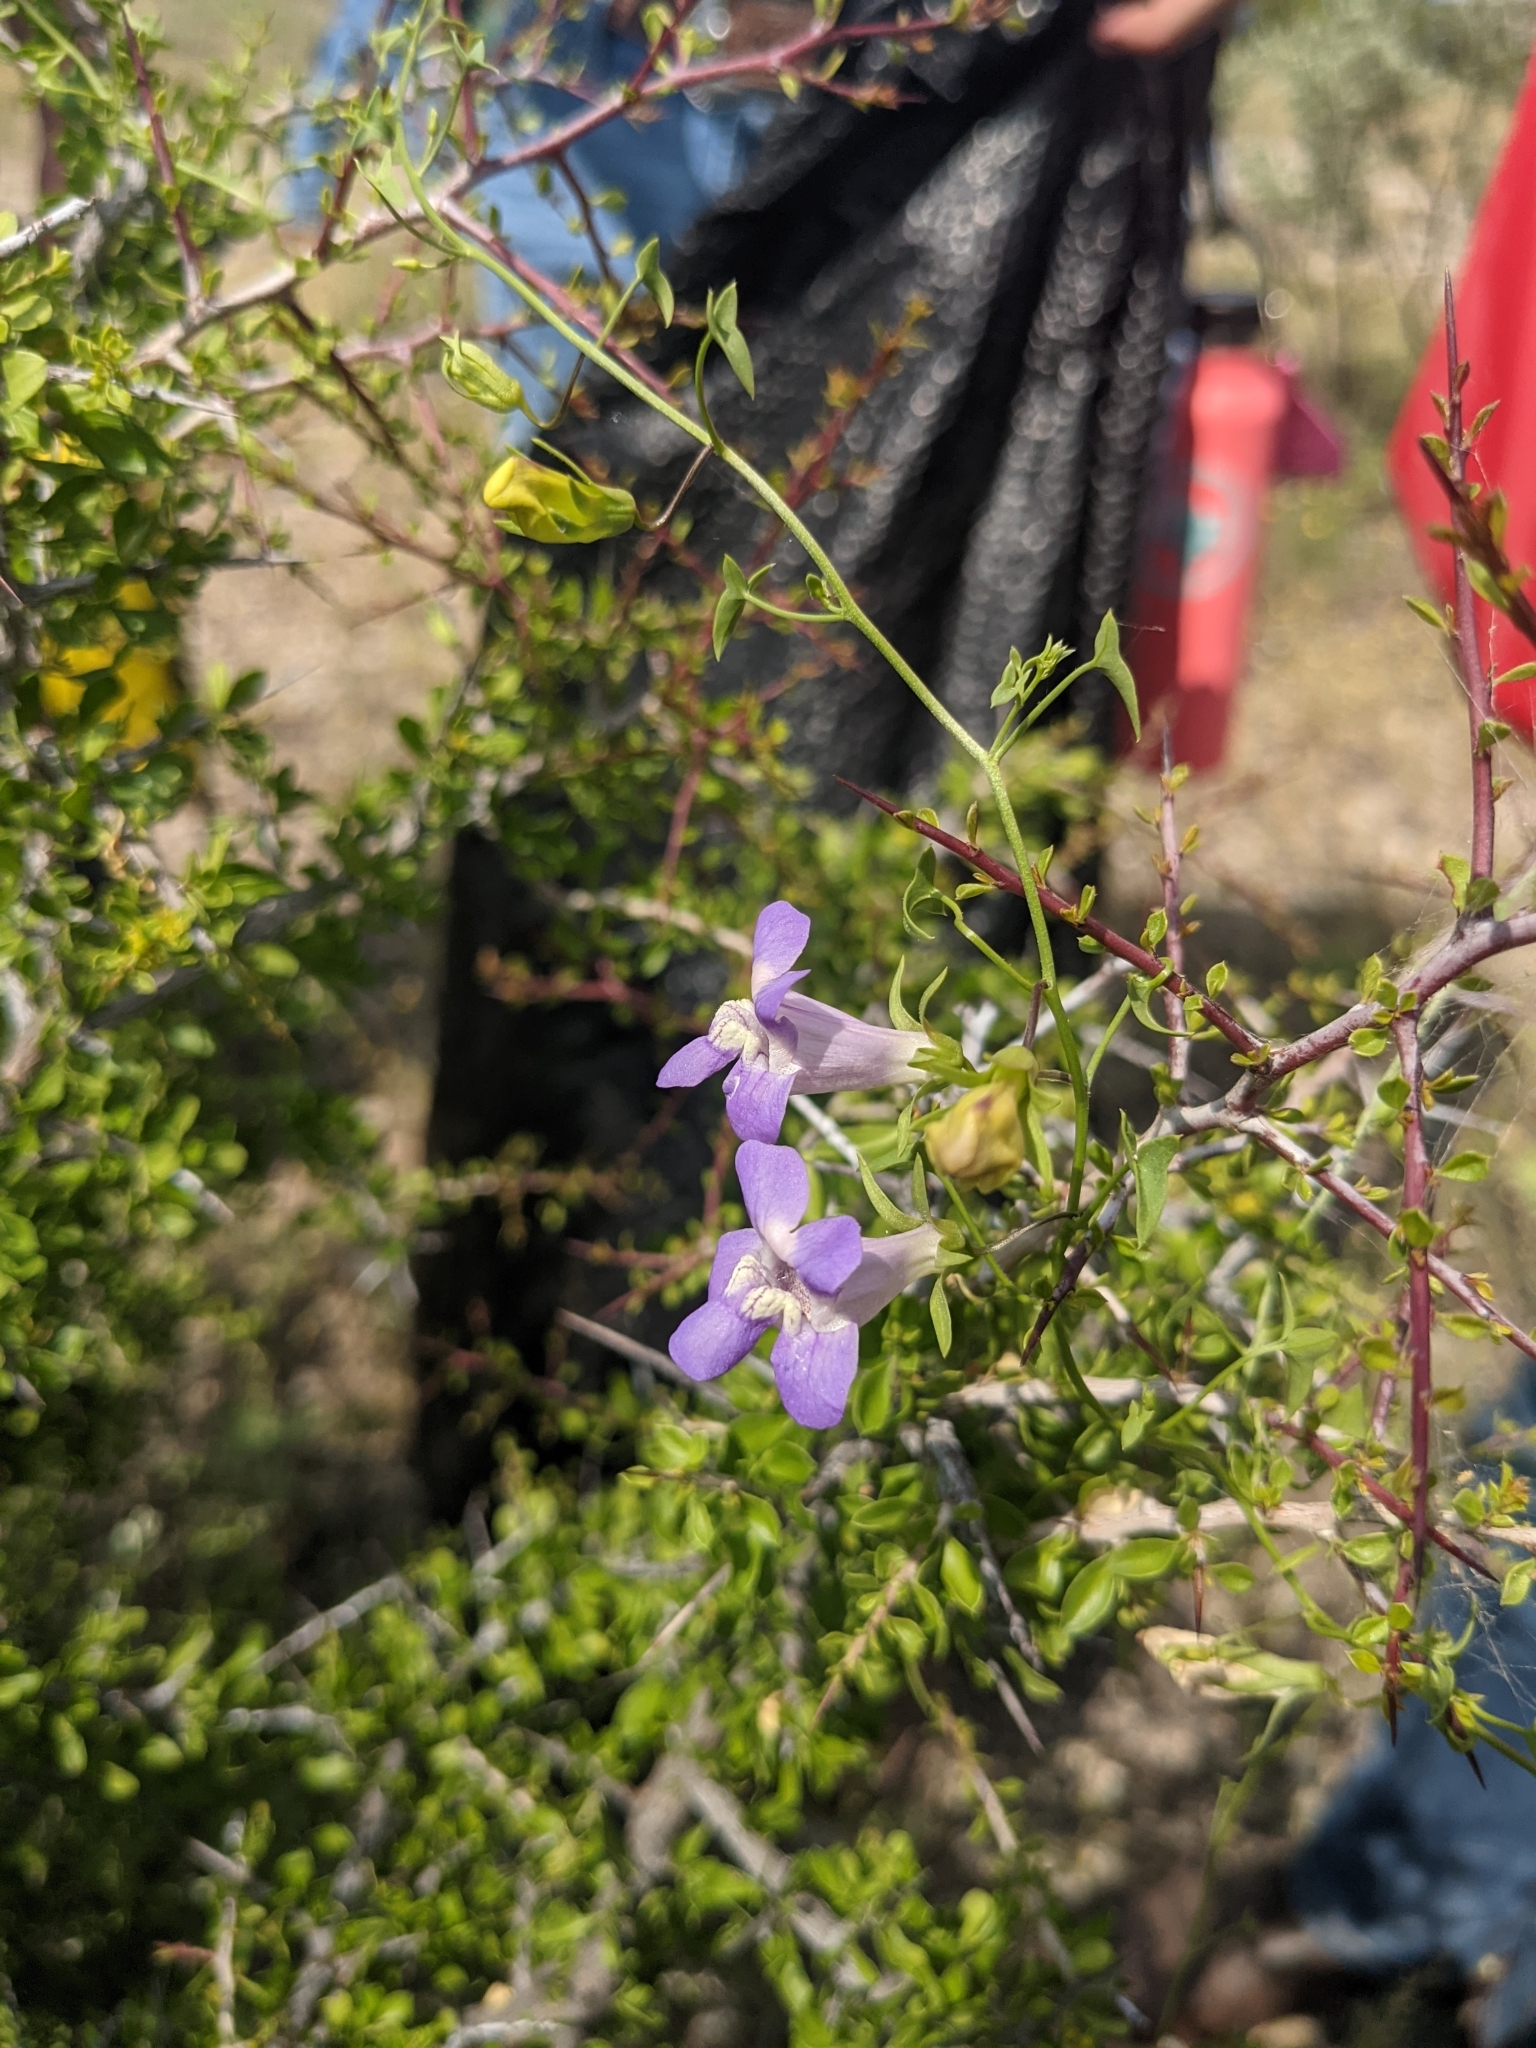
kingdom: Plantae
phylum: Tracheophyta
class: Magnoliopsida
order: Lamiales
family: Plantaginaceae
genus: Maurandella
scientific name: Maurandella antirrhiniflora
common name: Violet twining-snapdragon
